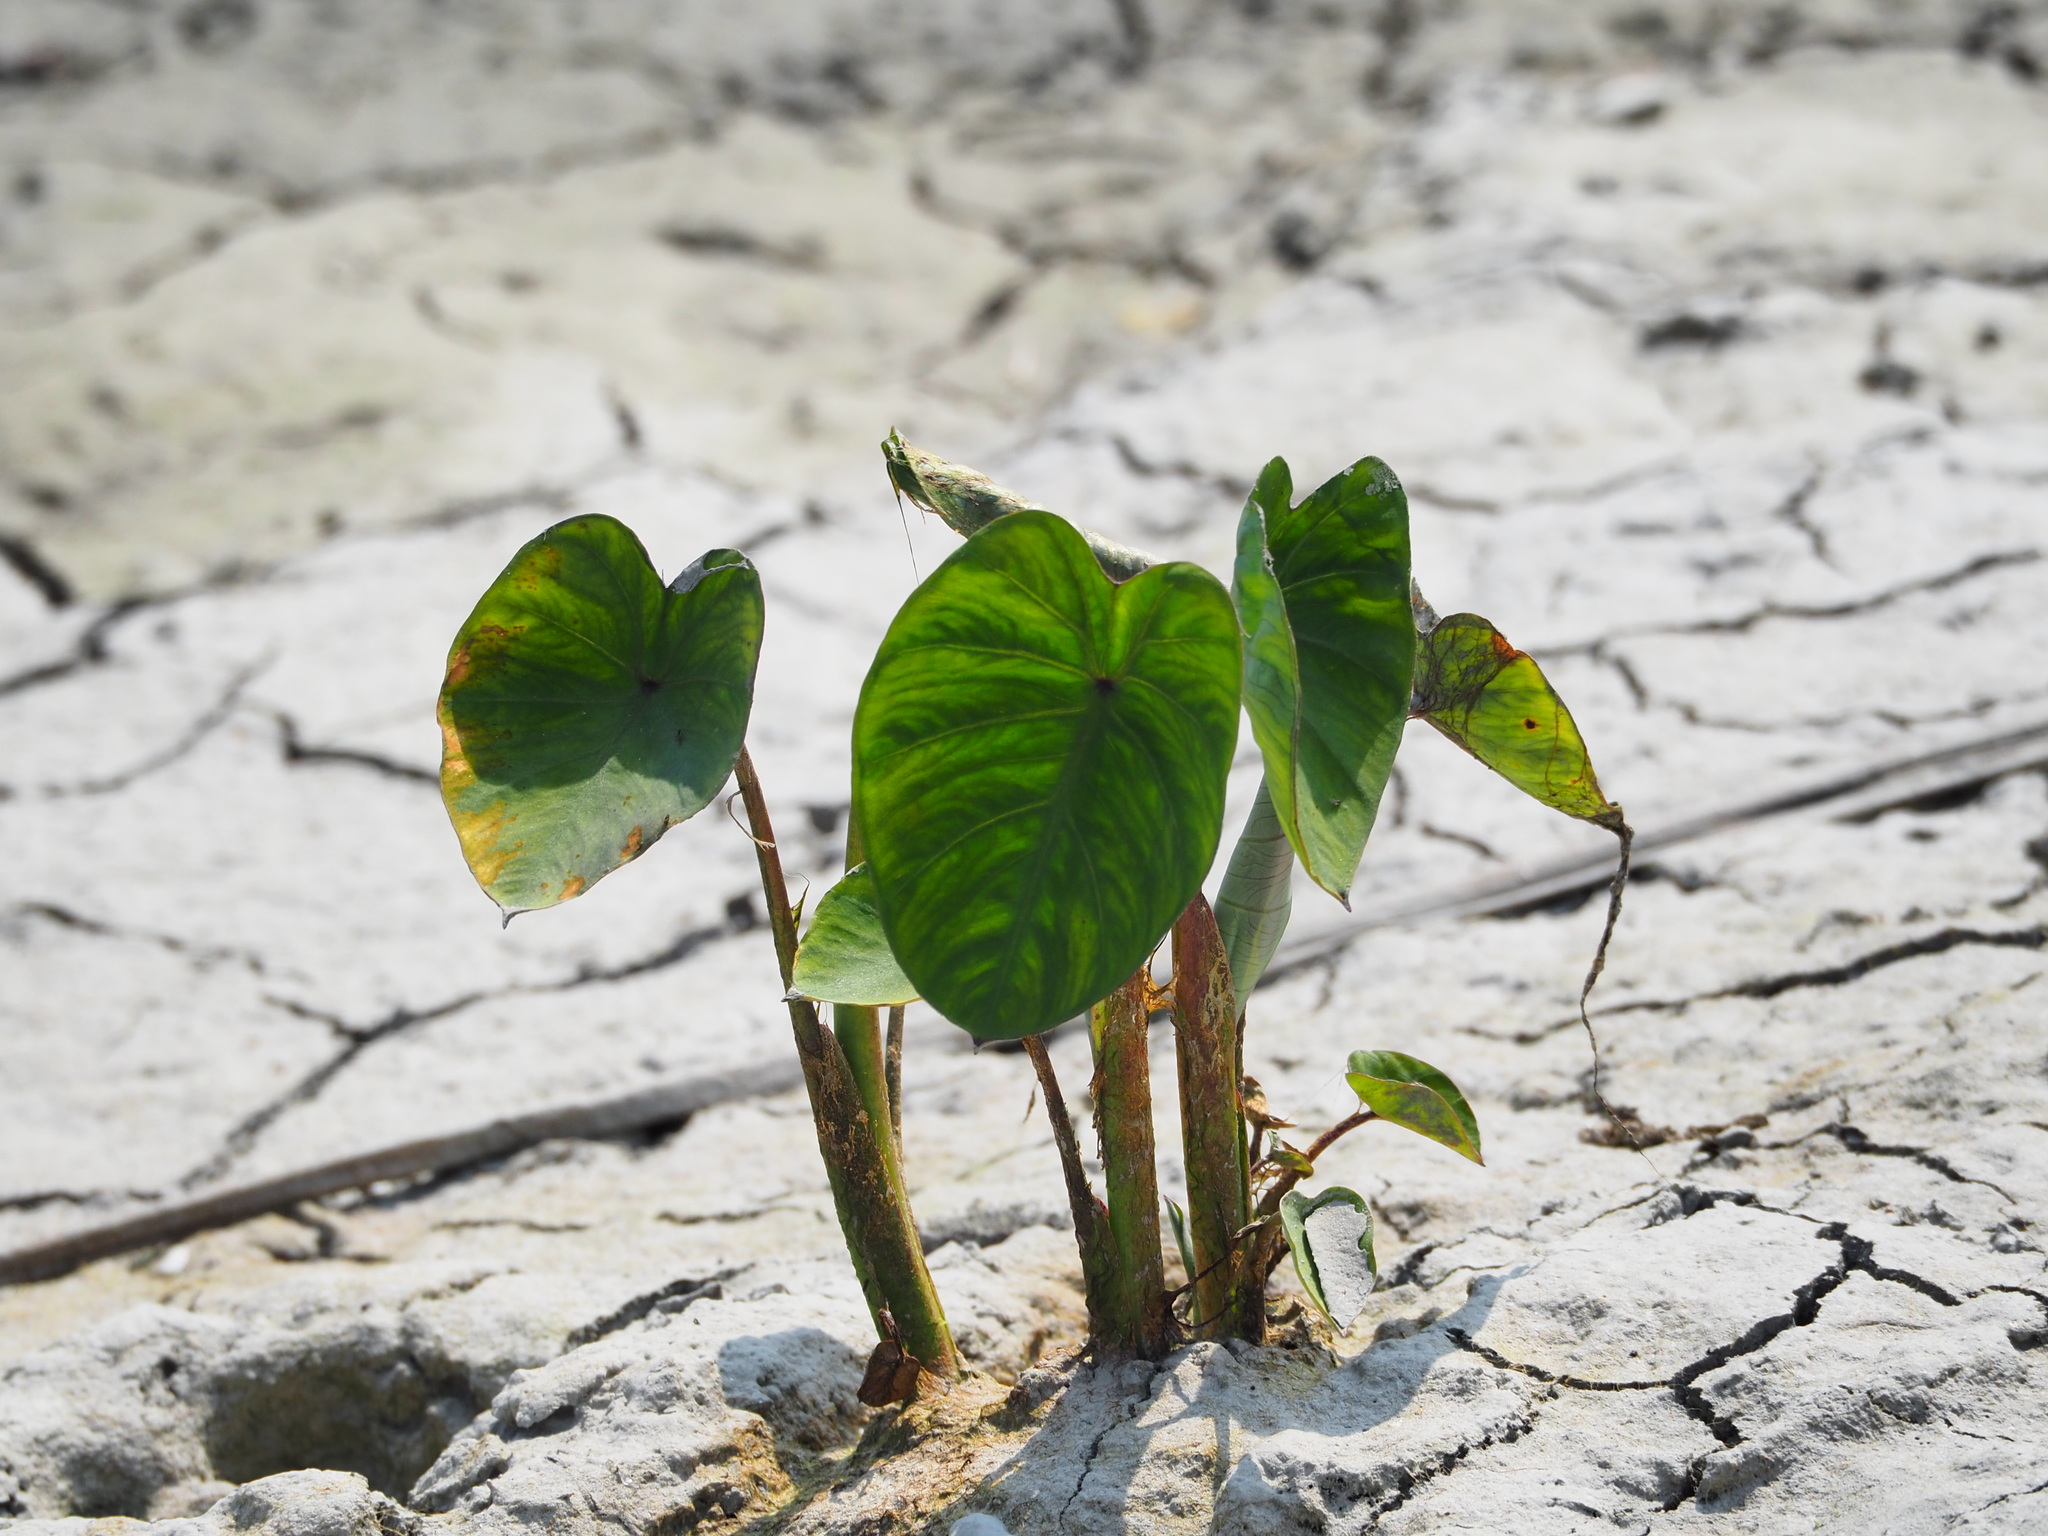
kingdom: Plantae
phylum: Tracheophyta
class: Liliopsida
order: Alismatales
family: Araceae
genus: Colocasia
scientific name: Colocasia esculenta
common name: Taro
